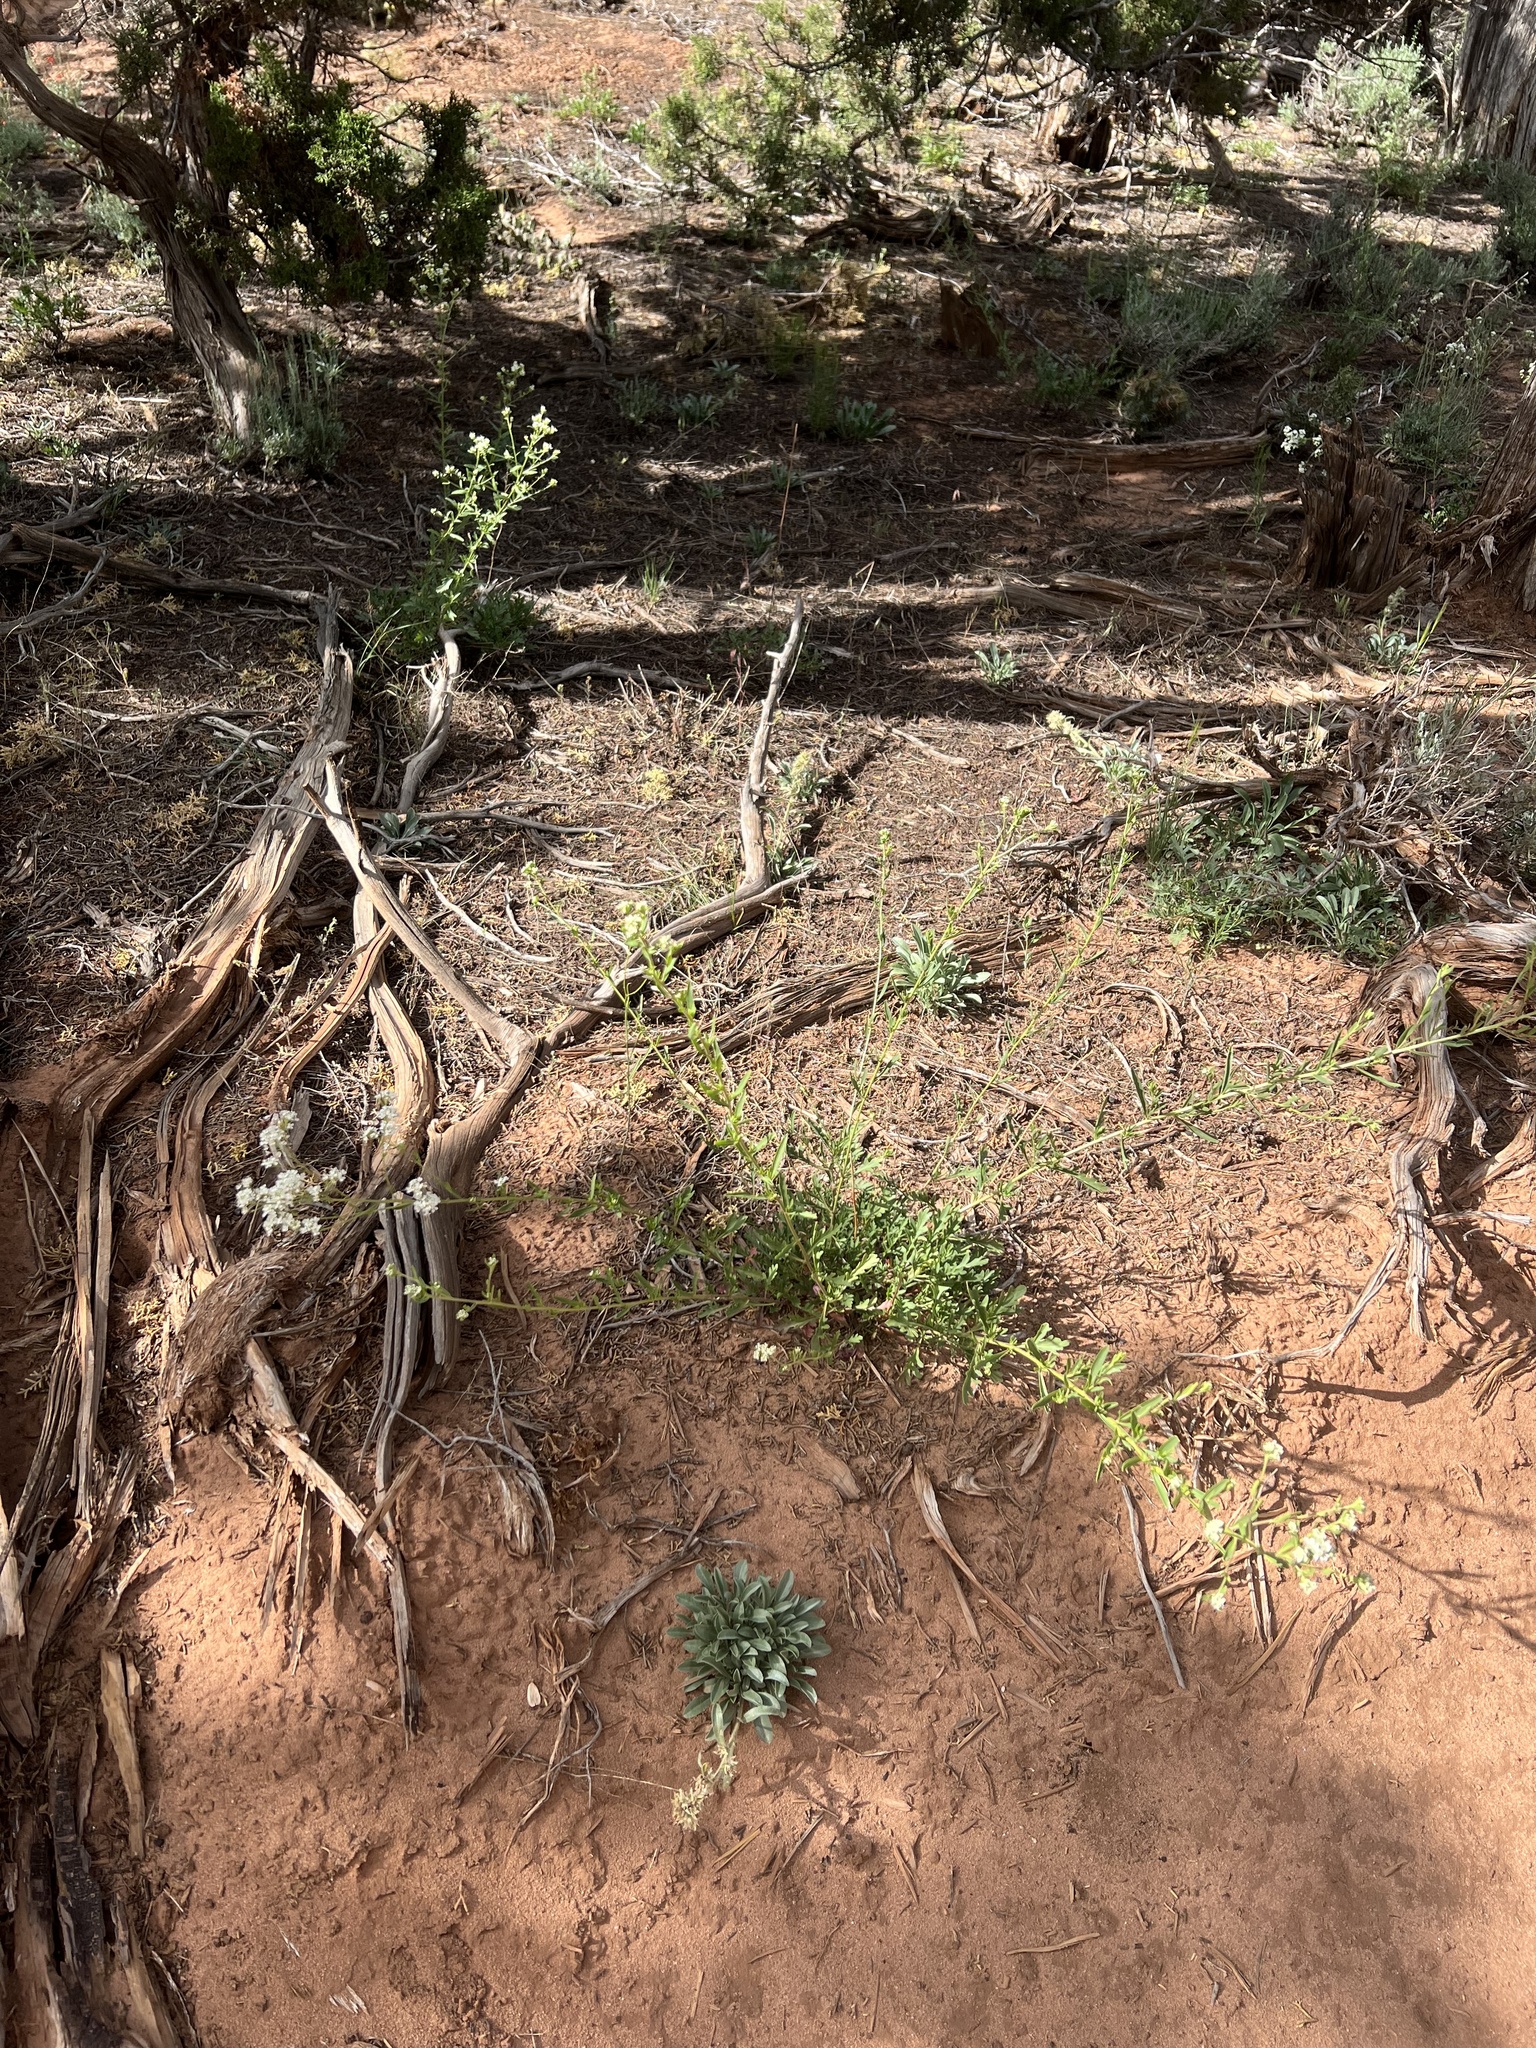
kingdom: Plantae
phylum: Tracheophyta
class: Magnoliopsida
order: Brassicales
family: Brassicaceae
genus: Lepidium
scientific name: Lepidium montanum
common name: Mountain pepperplant
